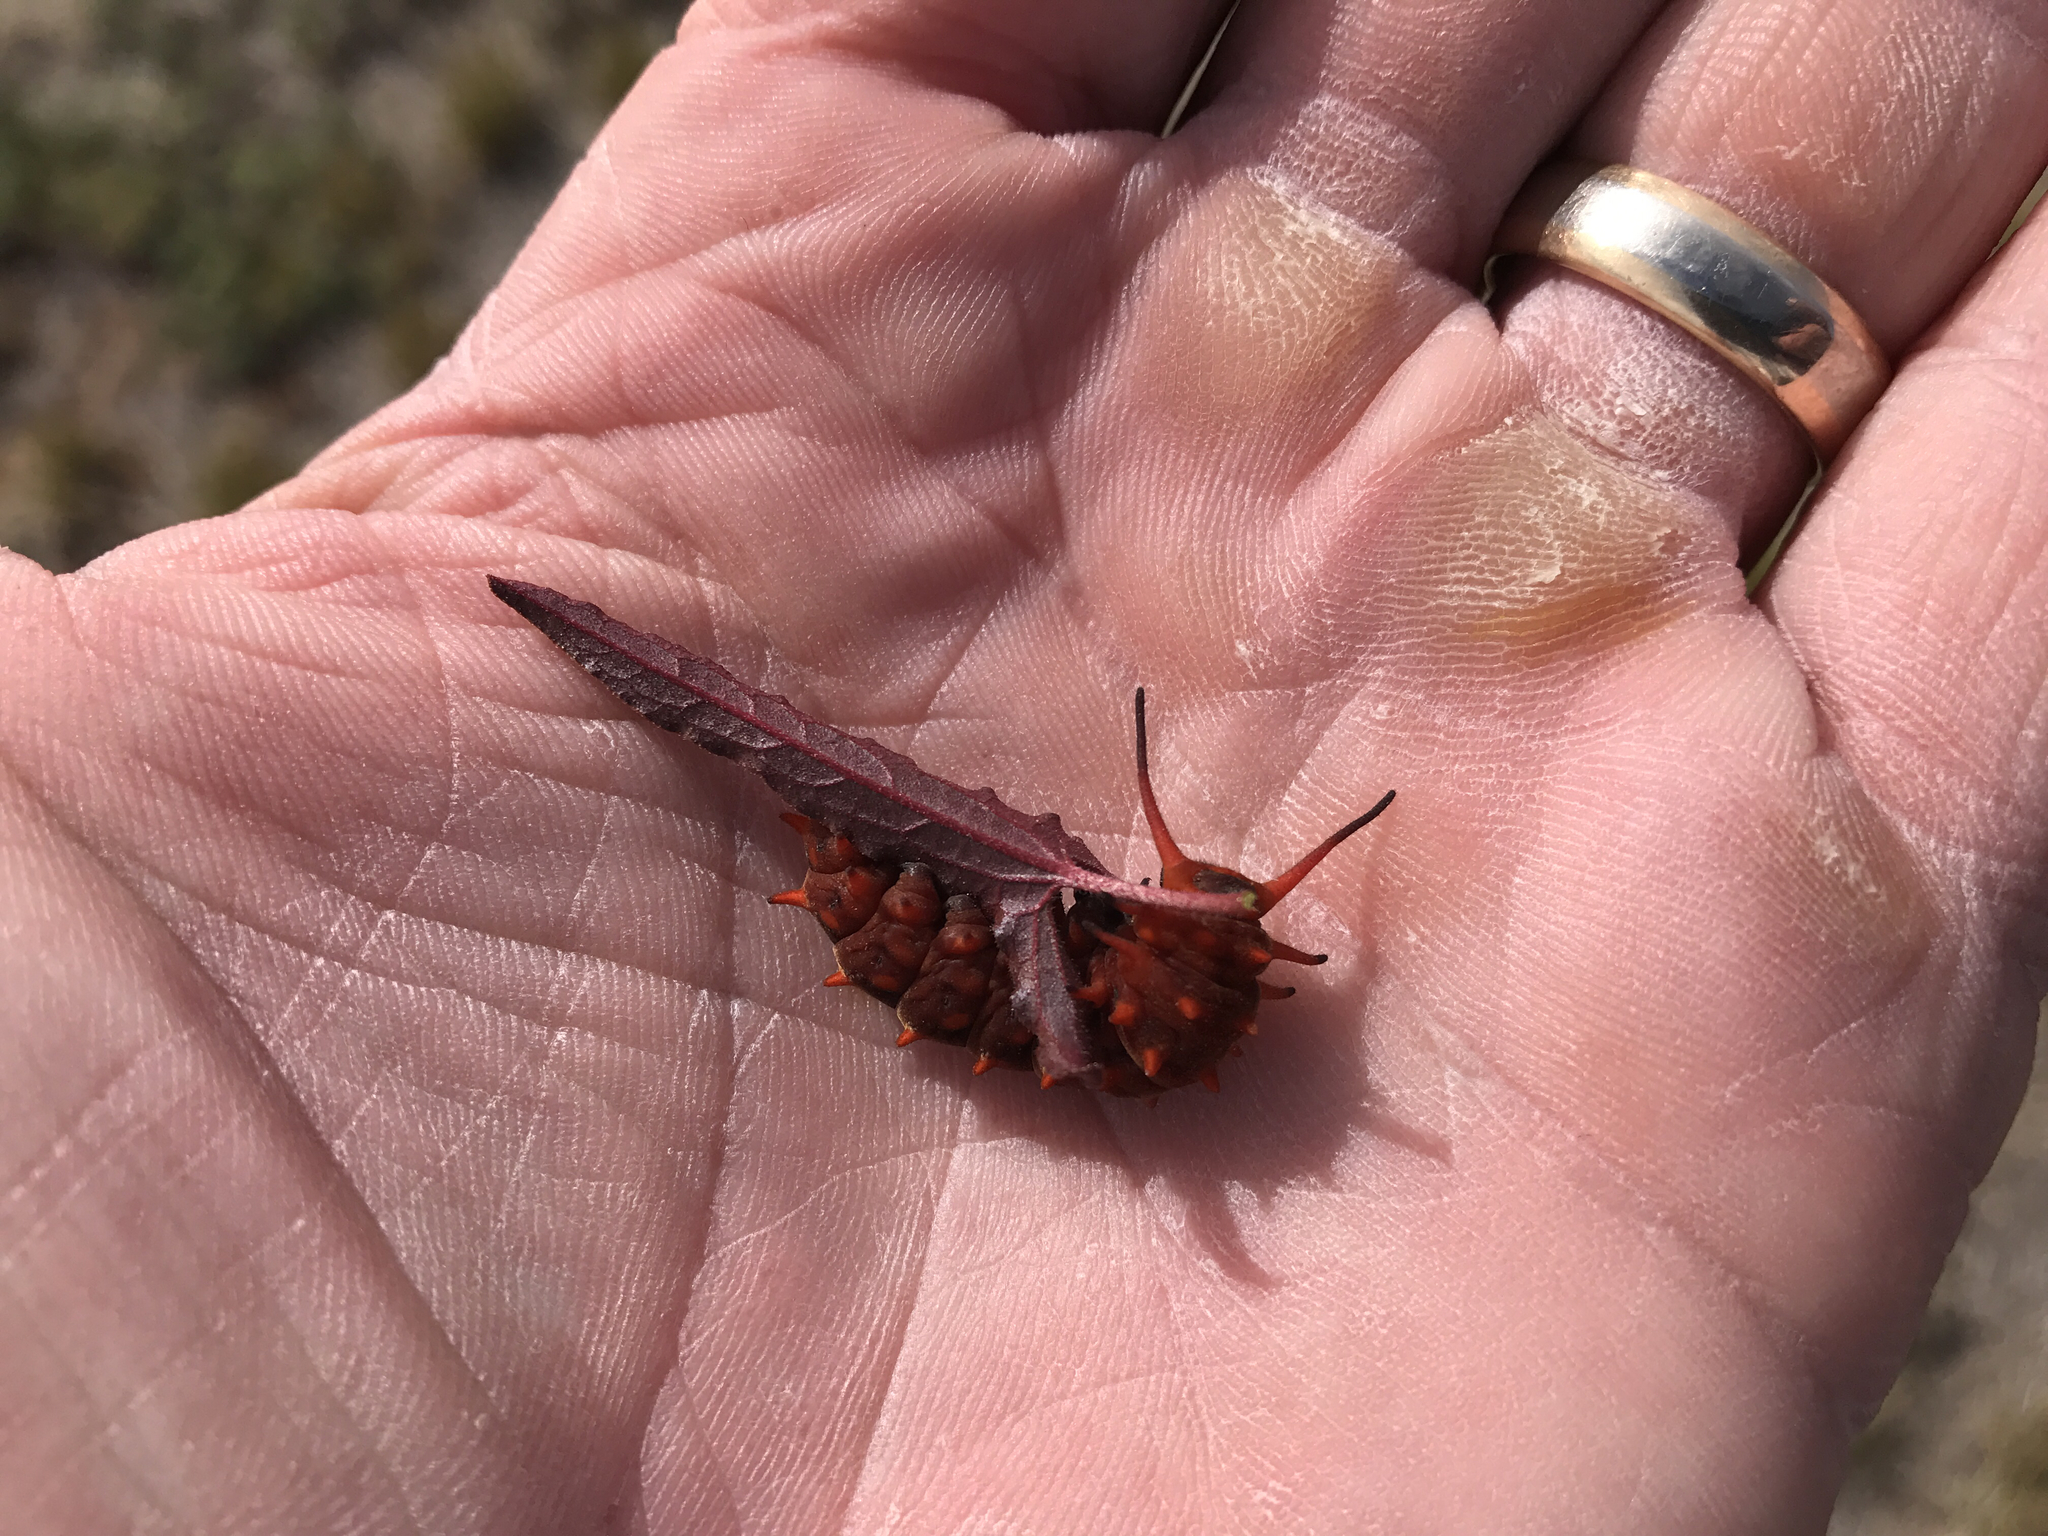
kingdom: Animalia
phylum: Arthropoda
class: Insecta
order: Lepidoptera
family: Papilionidae
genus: Battus
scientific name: Battus philenor
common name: Pipevine swallowtail
